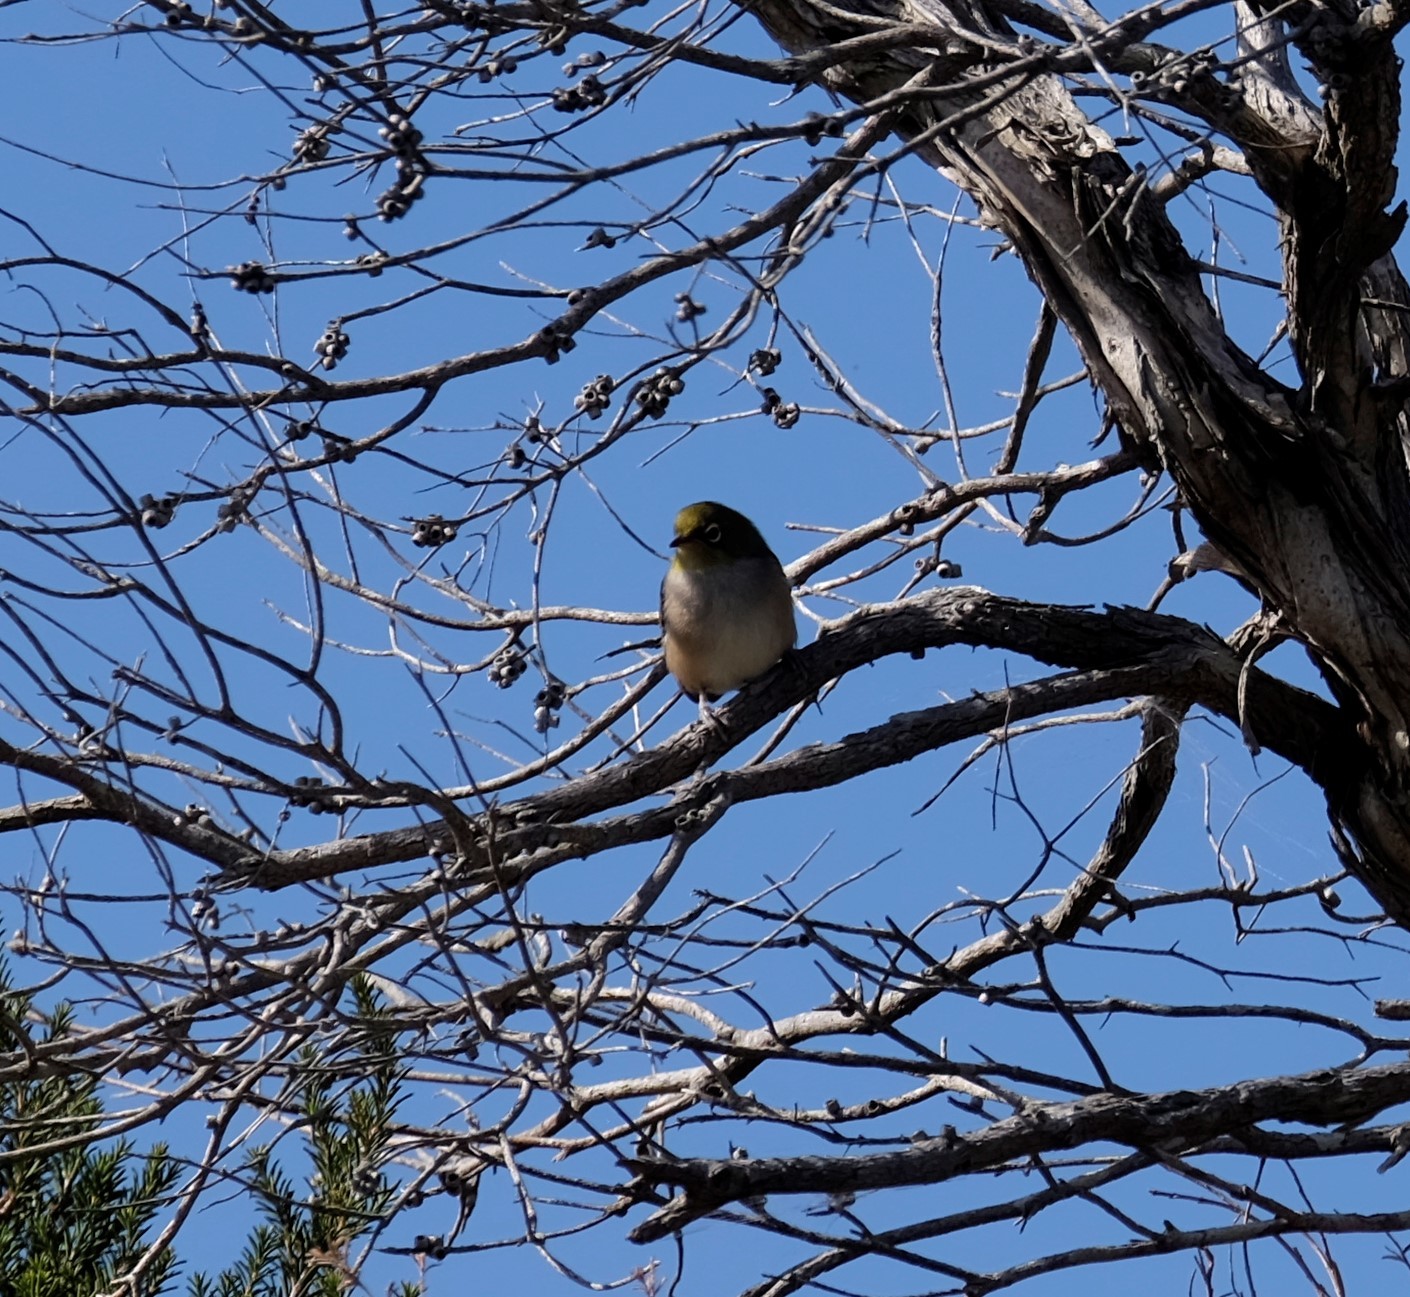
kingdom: Animalia
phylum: Chordata
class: Aves
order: Passeriformes
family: Zosteropidae
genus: Zosterops
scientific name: Zosterops lateralis
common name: Silvereye
